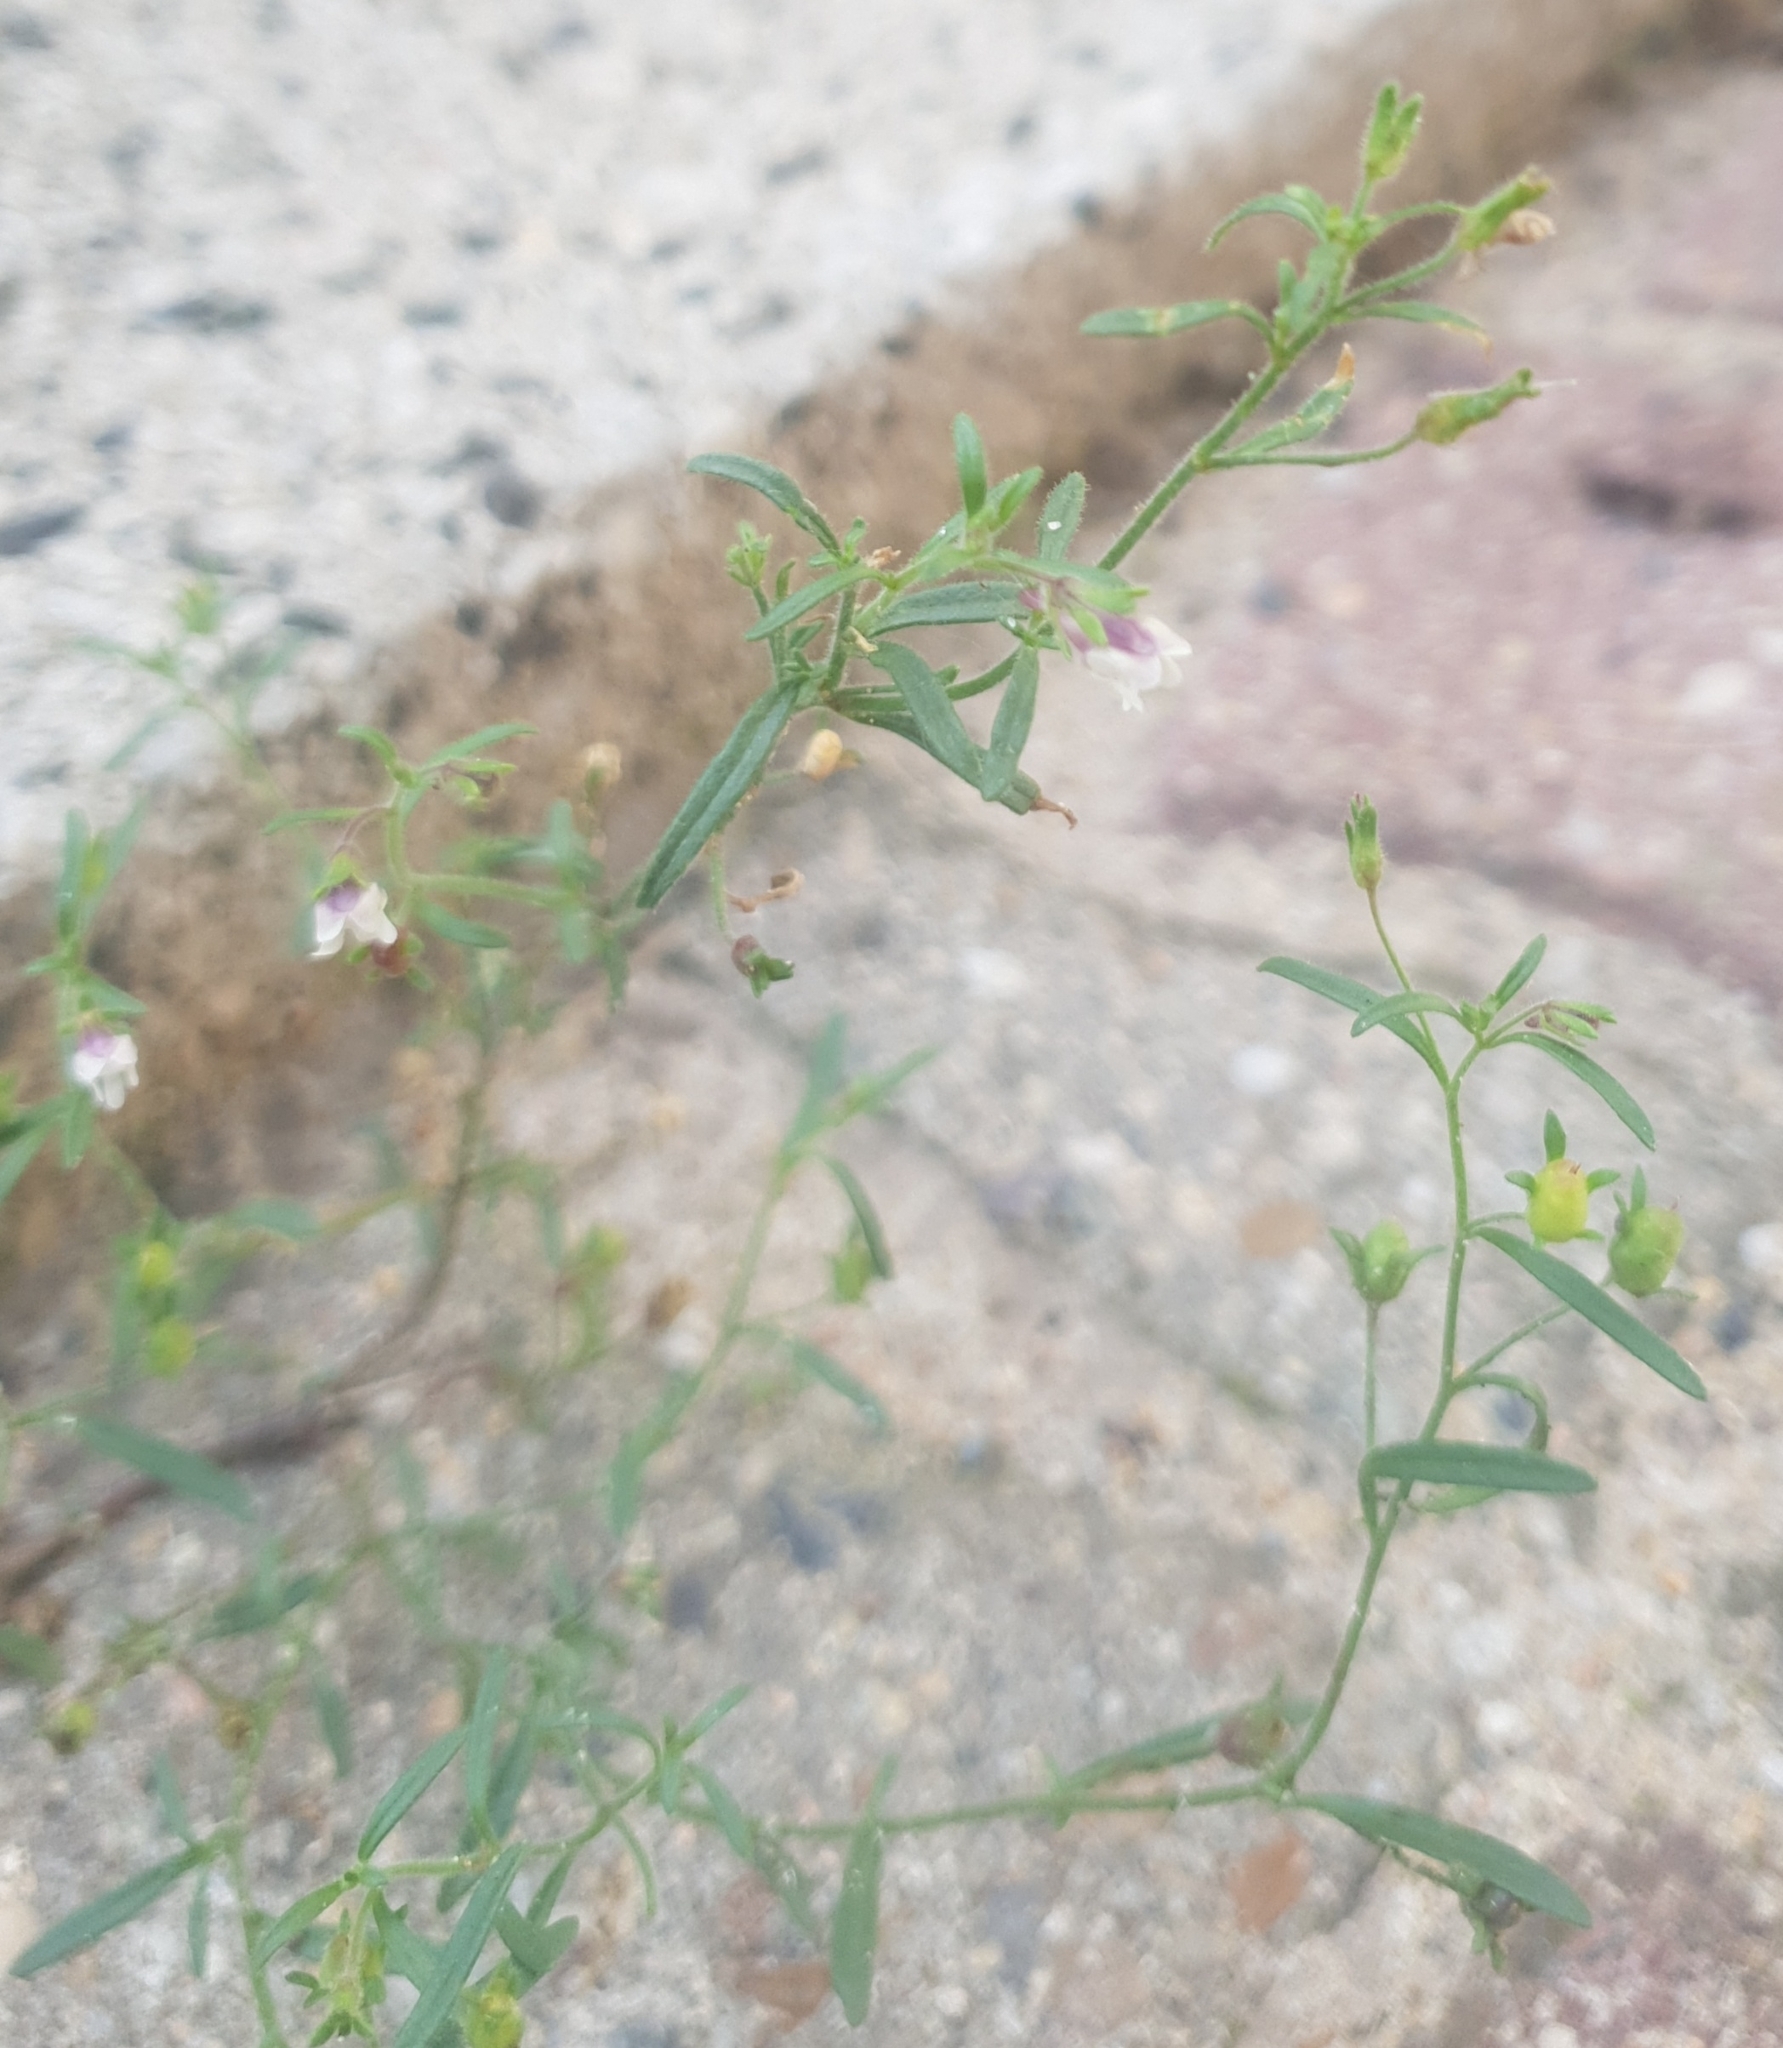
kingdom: Plantae
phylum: Tracheophyta
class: Magnoliopsida
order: Lamiales
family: Plantaginaceae
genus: Chaenorhinum
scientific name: Chaenorhinum minus
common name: Dwarf snapdragon
